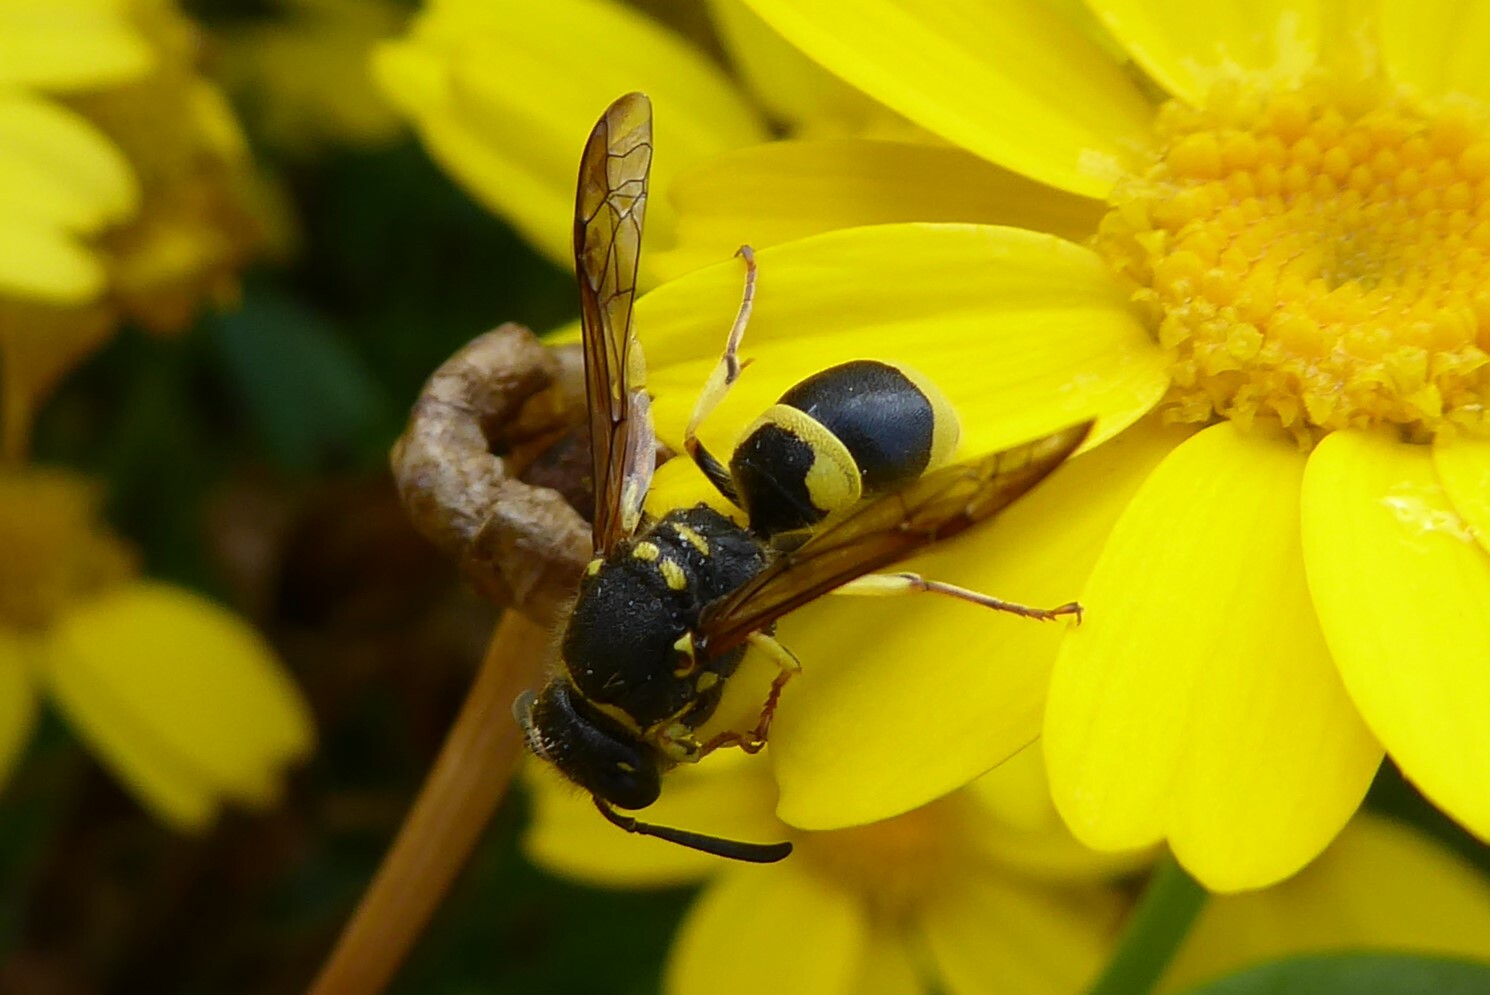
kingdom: Animalia
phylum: Arthropoda
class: Insecta
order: Hymenoptera
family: Vespidae
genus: Ancistrocerus
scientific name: Ancistrocerus gazella
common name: European tube wasp
